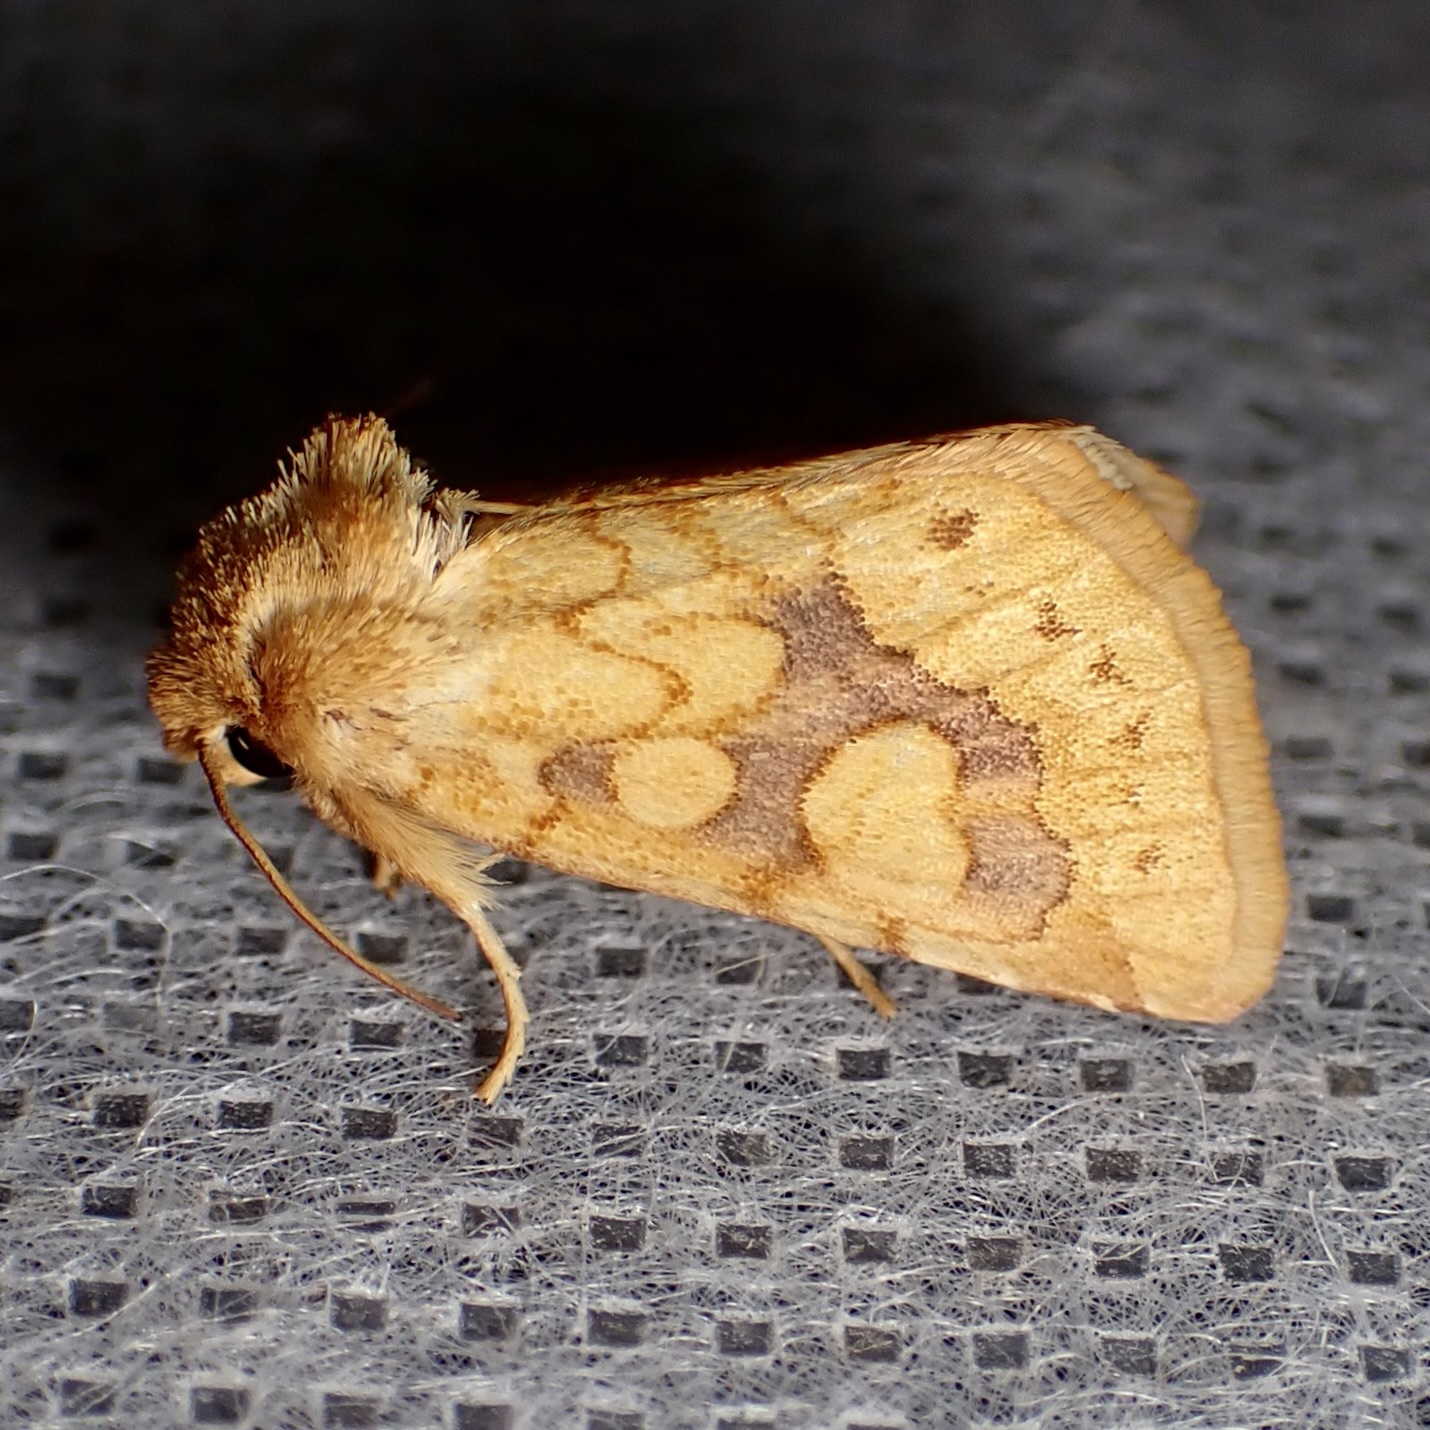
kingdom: Animalia
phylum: Arthropoda
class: Insecta
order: Lepidoptera
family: Noctuidae
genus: Nocloa
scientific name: Nocloa cordova
